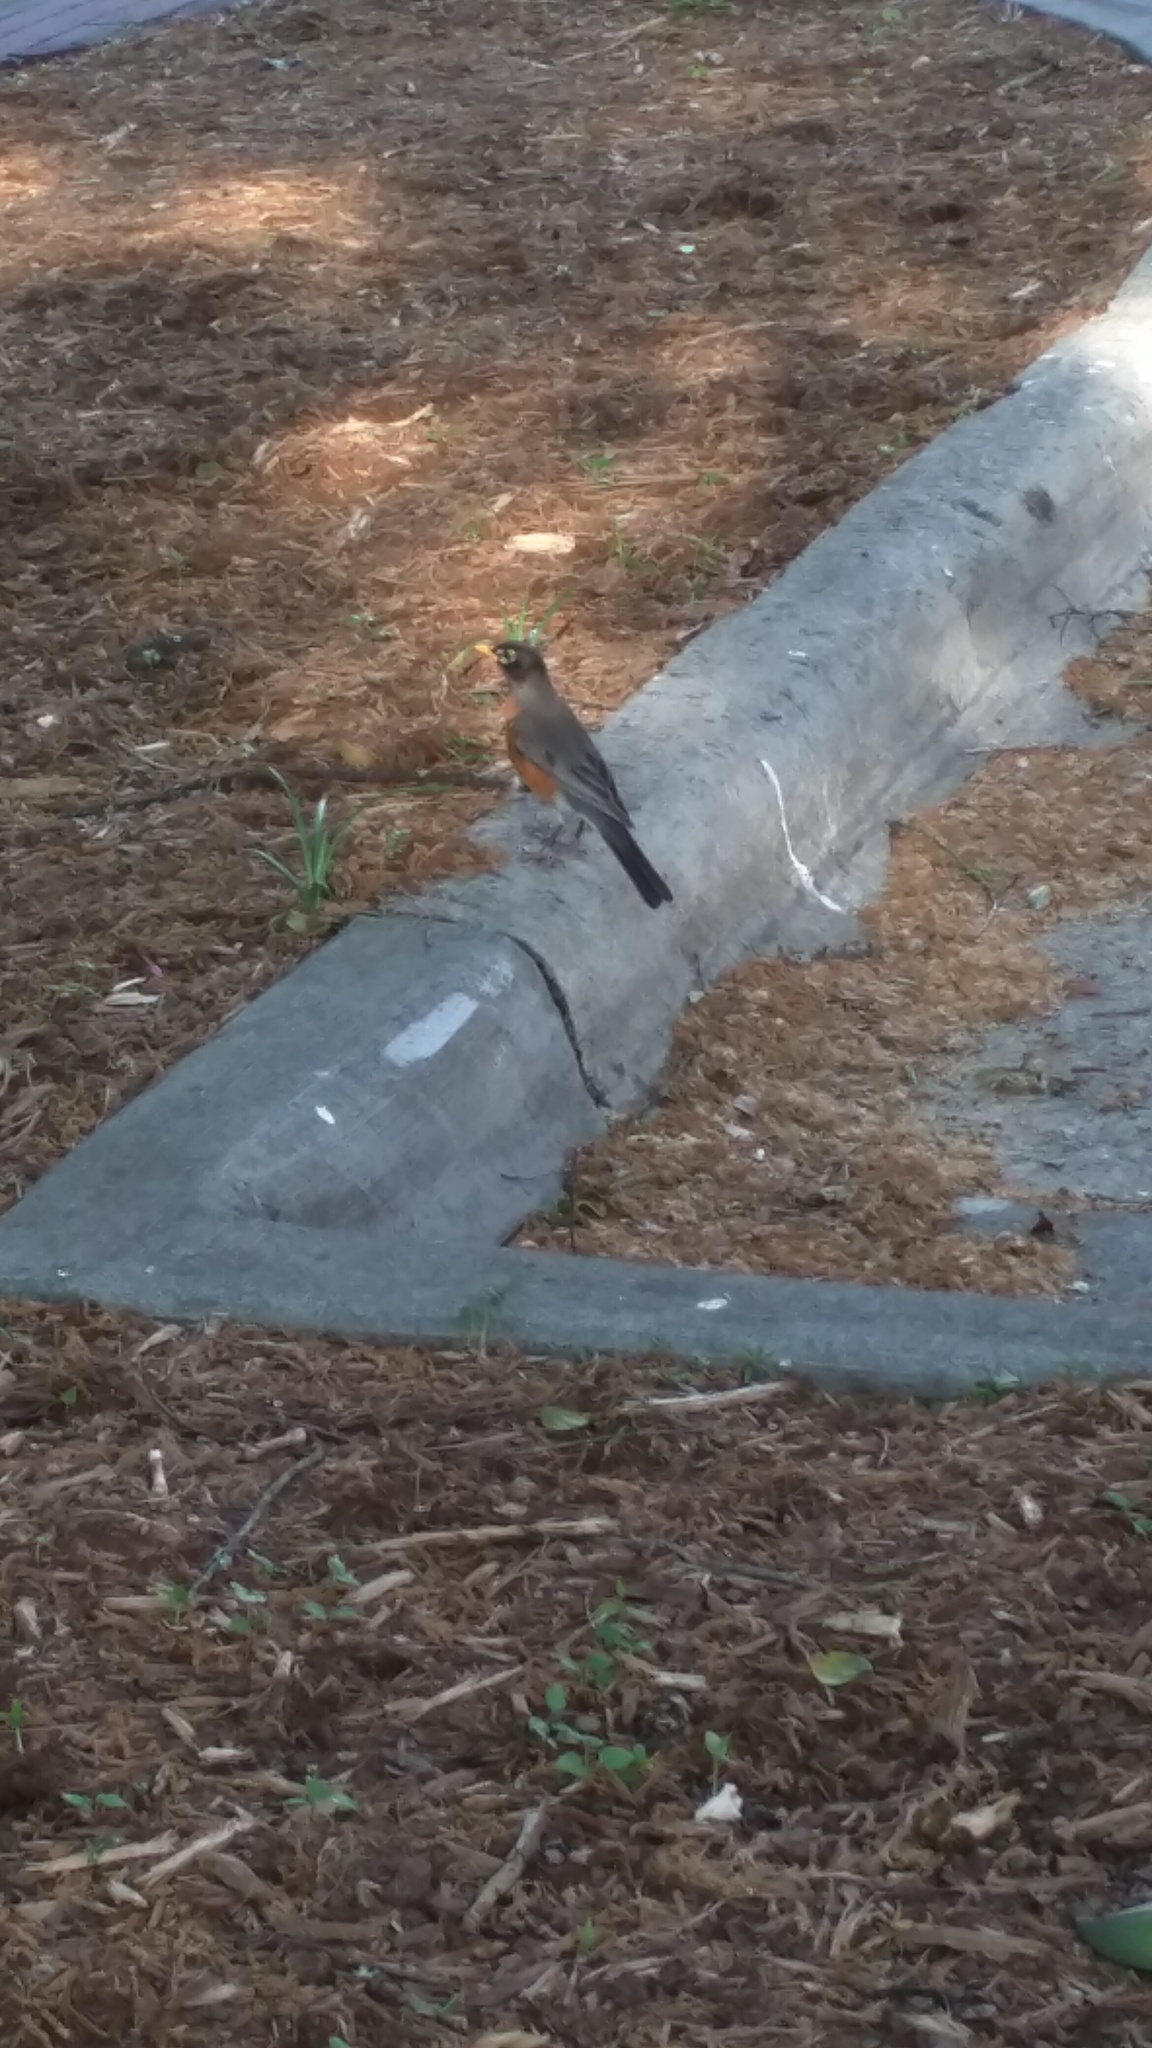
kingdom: Animalia
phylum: Chordata
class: Aves
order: Passeriformes
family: Turdidae
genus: Turdus
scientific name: Turdus migratorius
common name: American robin
